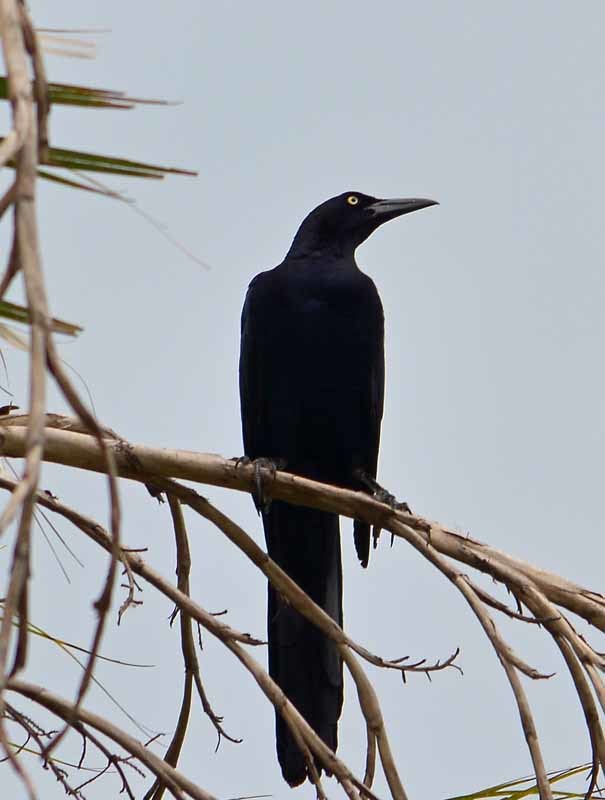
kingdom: Animalia
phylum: Chordata
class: Aves
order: Passeriformes
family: Icteridae
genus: Quiscalus
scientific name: Quiscalus mexicanus
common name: Great-tailed grackle
